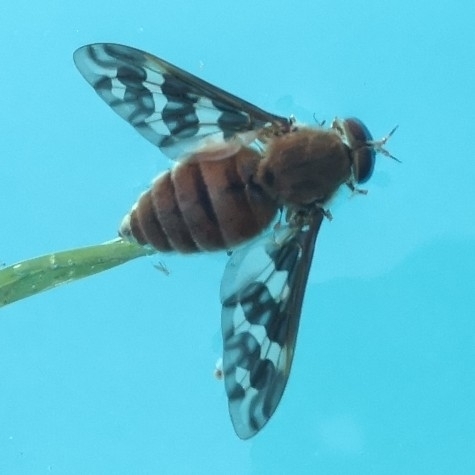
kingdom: Animalia
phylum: Arthropoda
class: Insecta
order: Diptera
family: Tabanidae
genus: Esenbeckia
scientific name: Esenbeckia fascipennis
